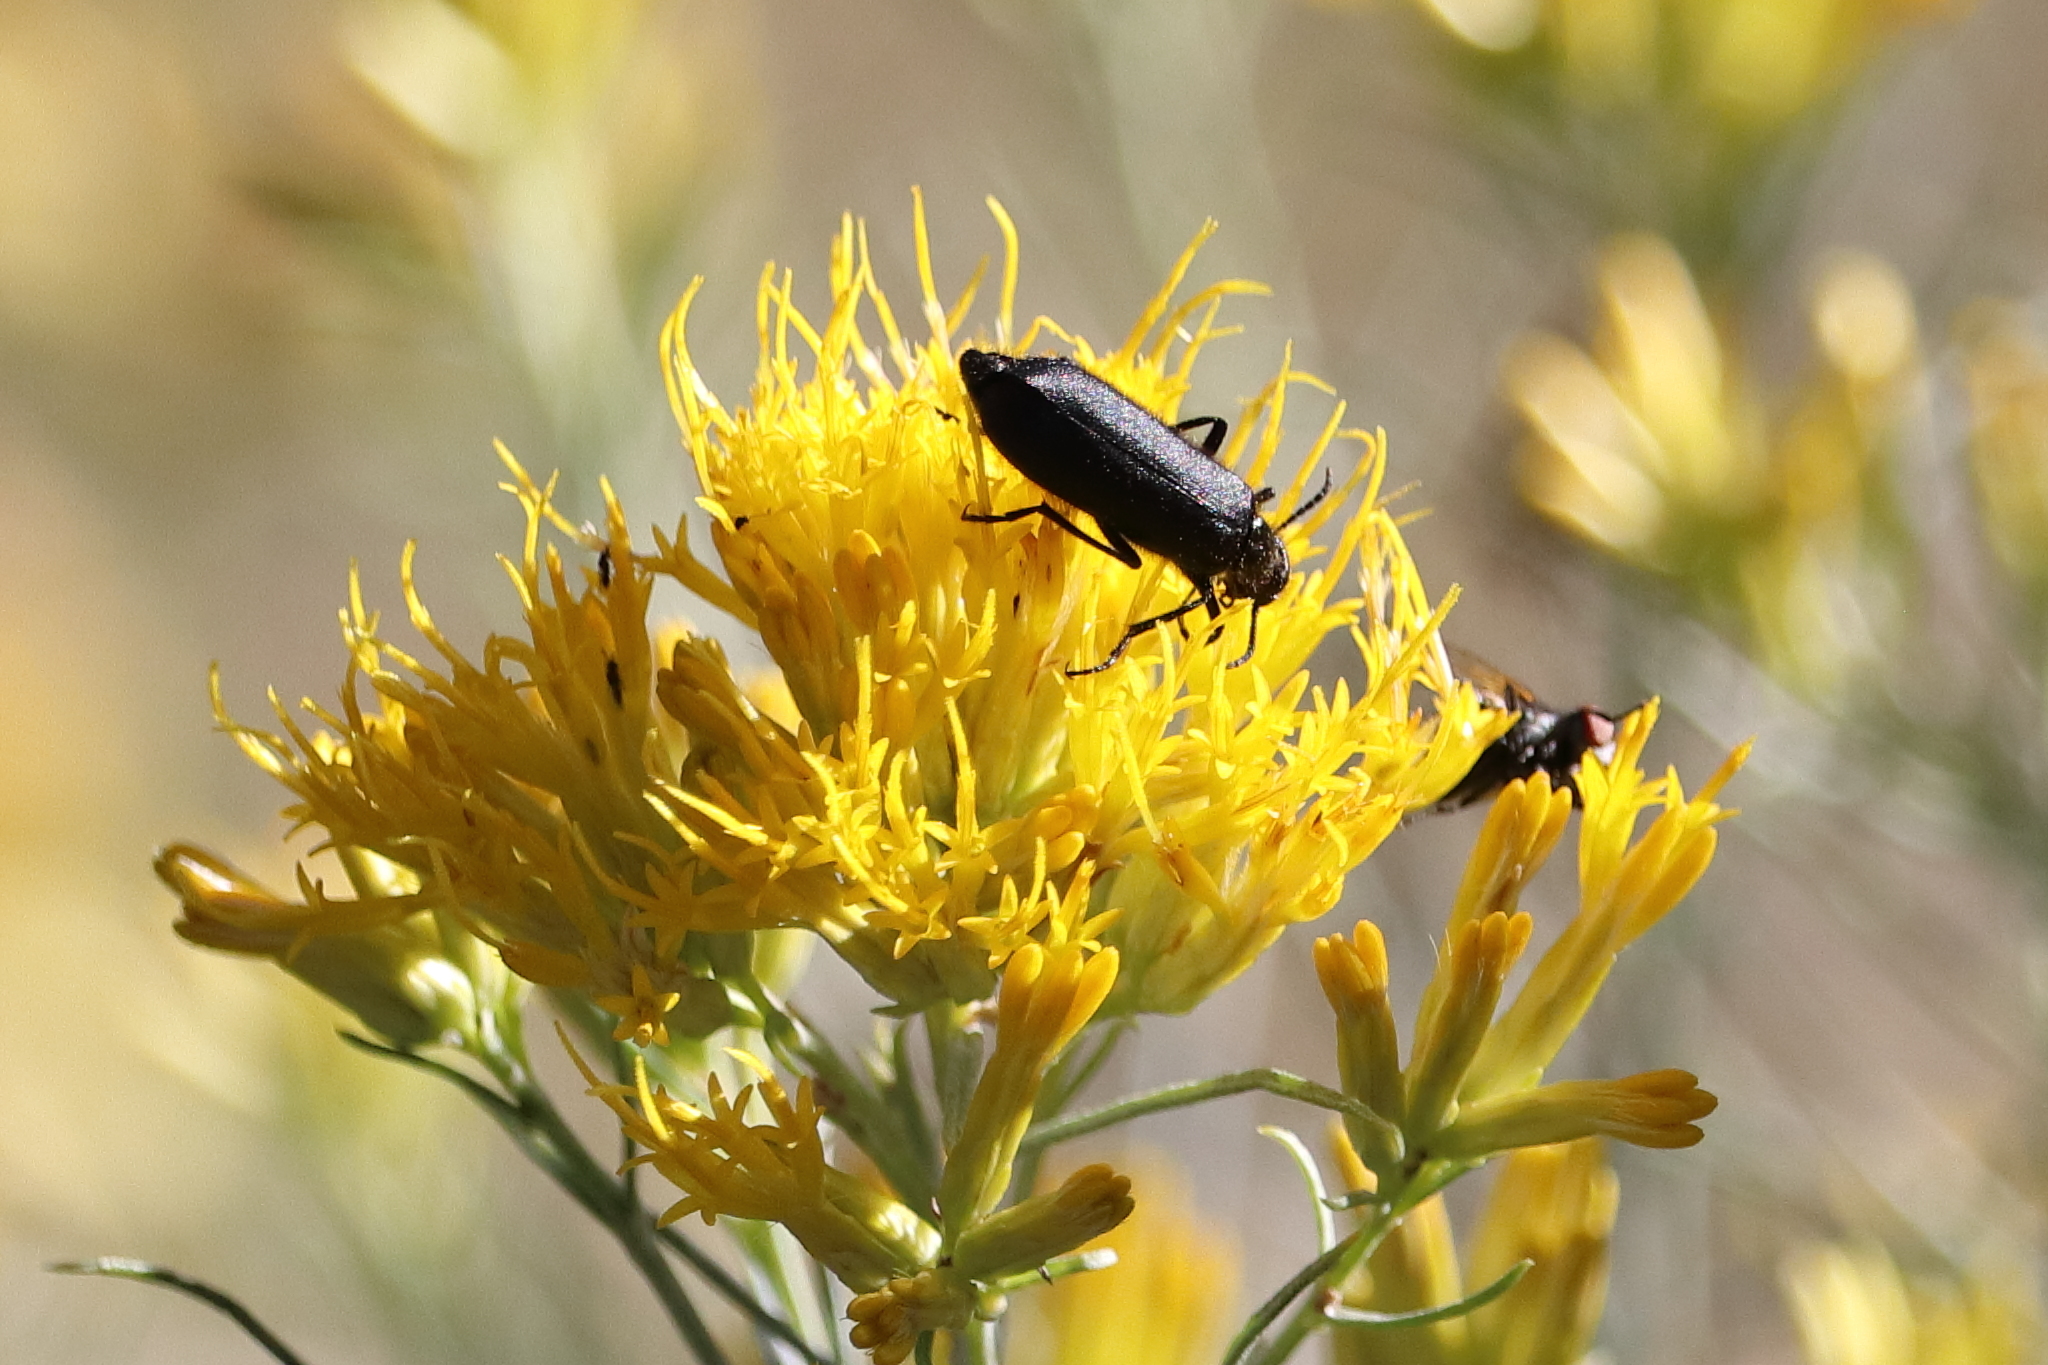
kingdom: Animalia
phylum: Arthropoda
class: Insecta
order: Coleoptera
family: Meloidae
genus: Epicauta
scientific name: Epicauta puncticollis
